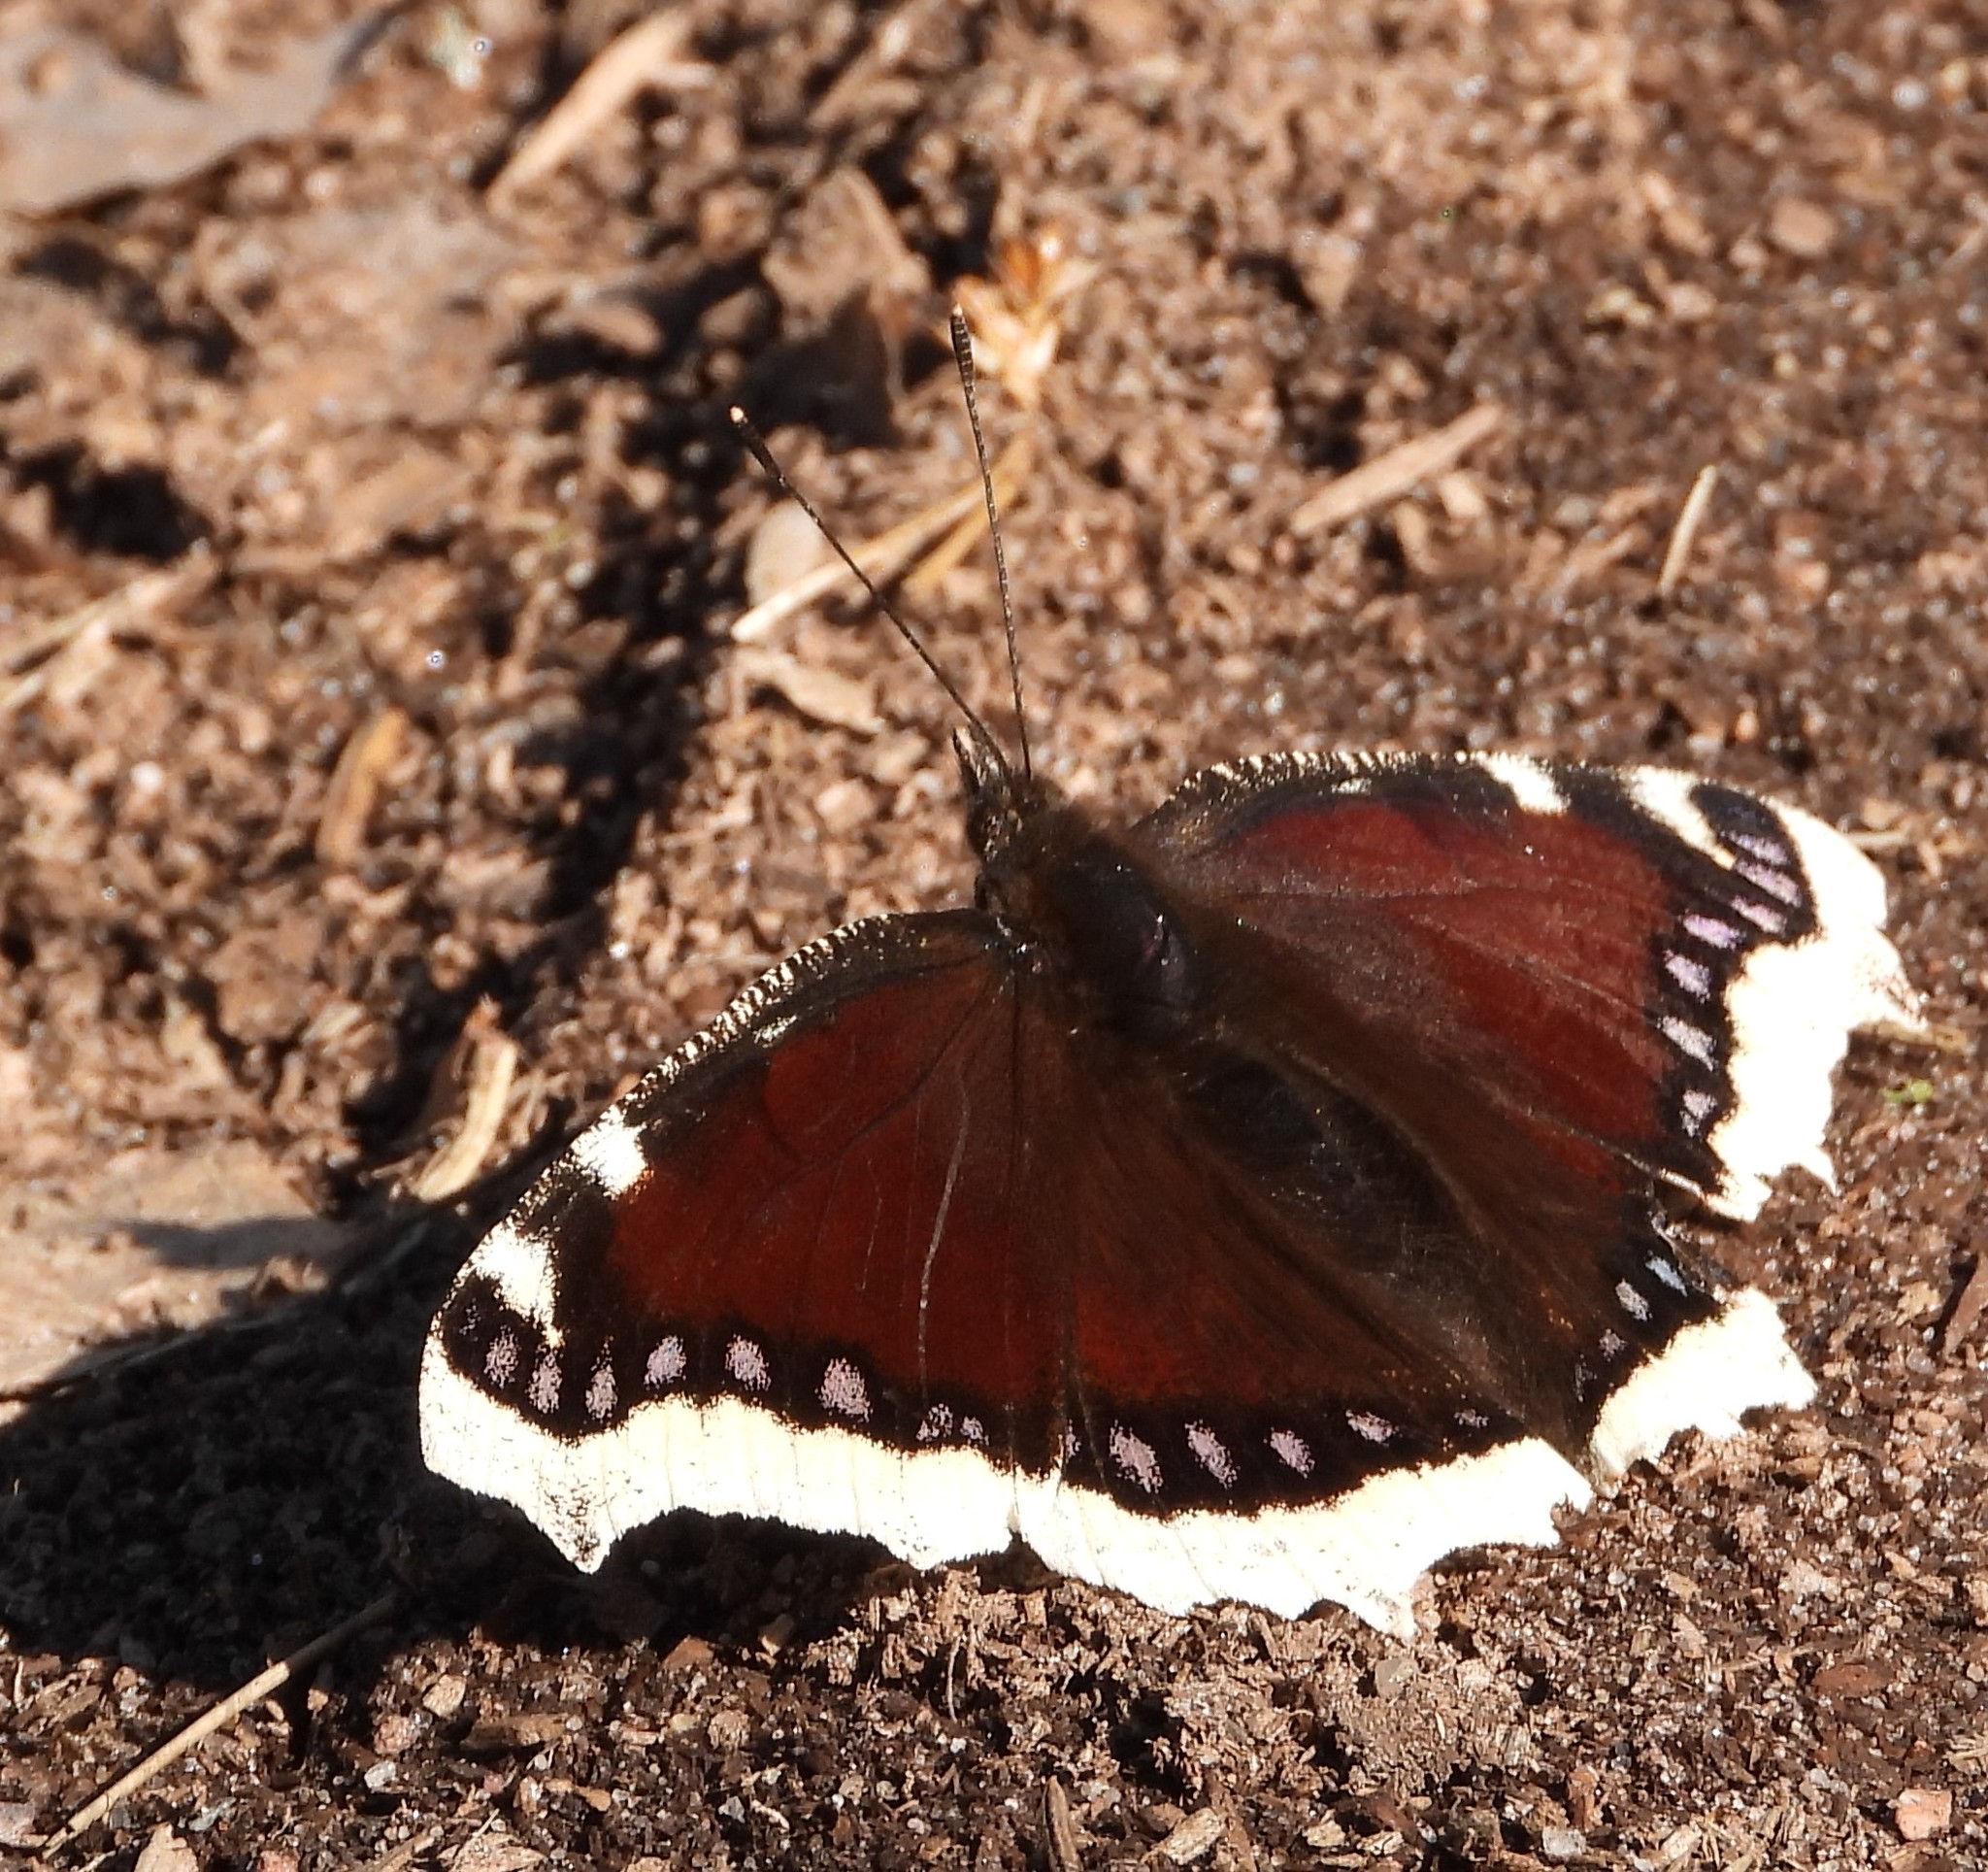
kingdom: Animalia
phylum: Arthropoda
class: Insecta
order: Lepidoptera
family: Nymphalidae
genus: Nymphalis
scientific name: Nymphalis antiopa
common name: Camberwell beauty
